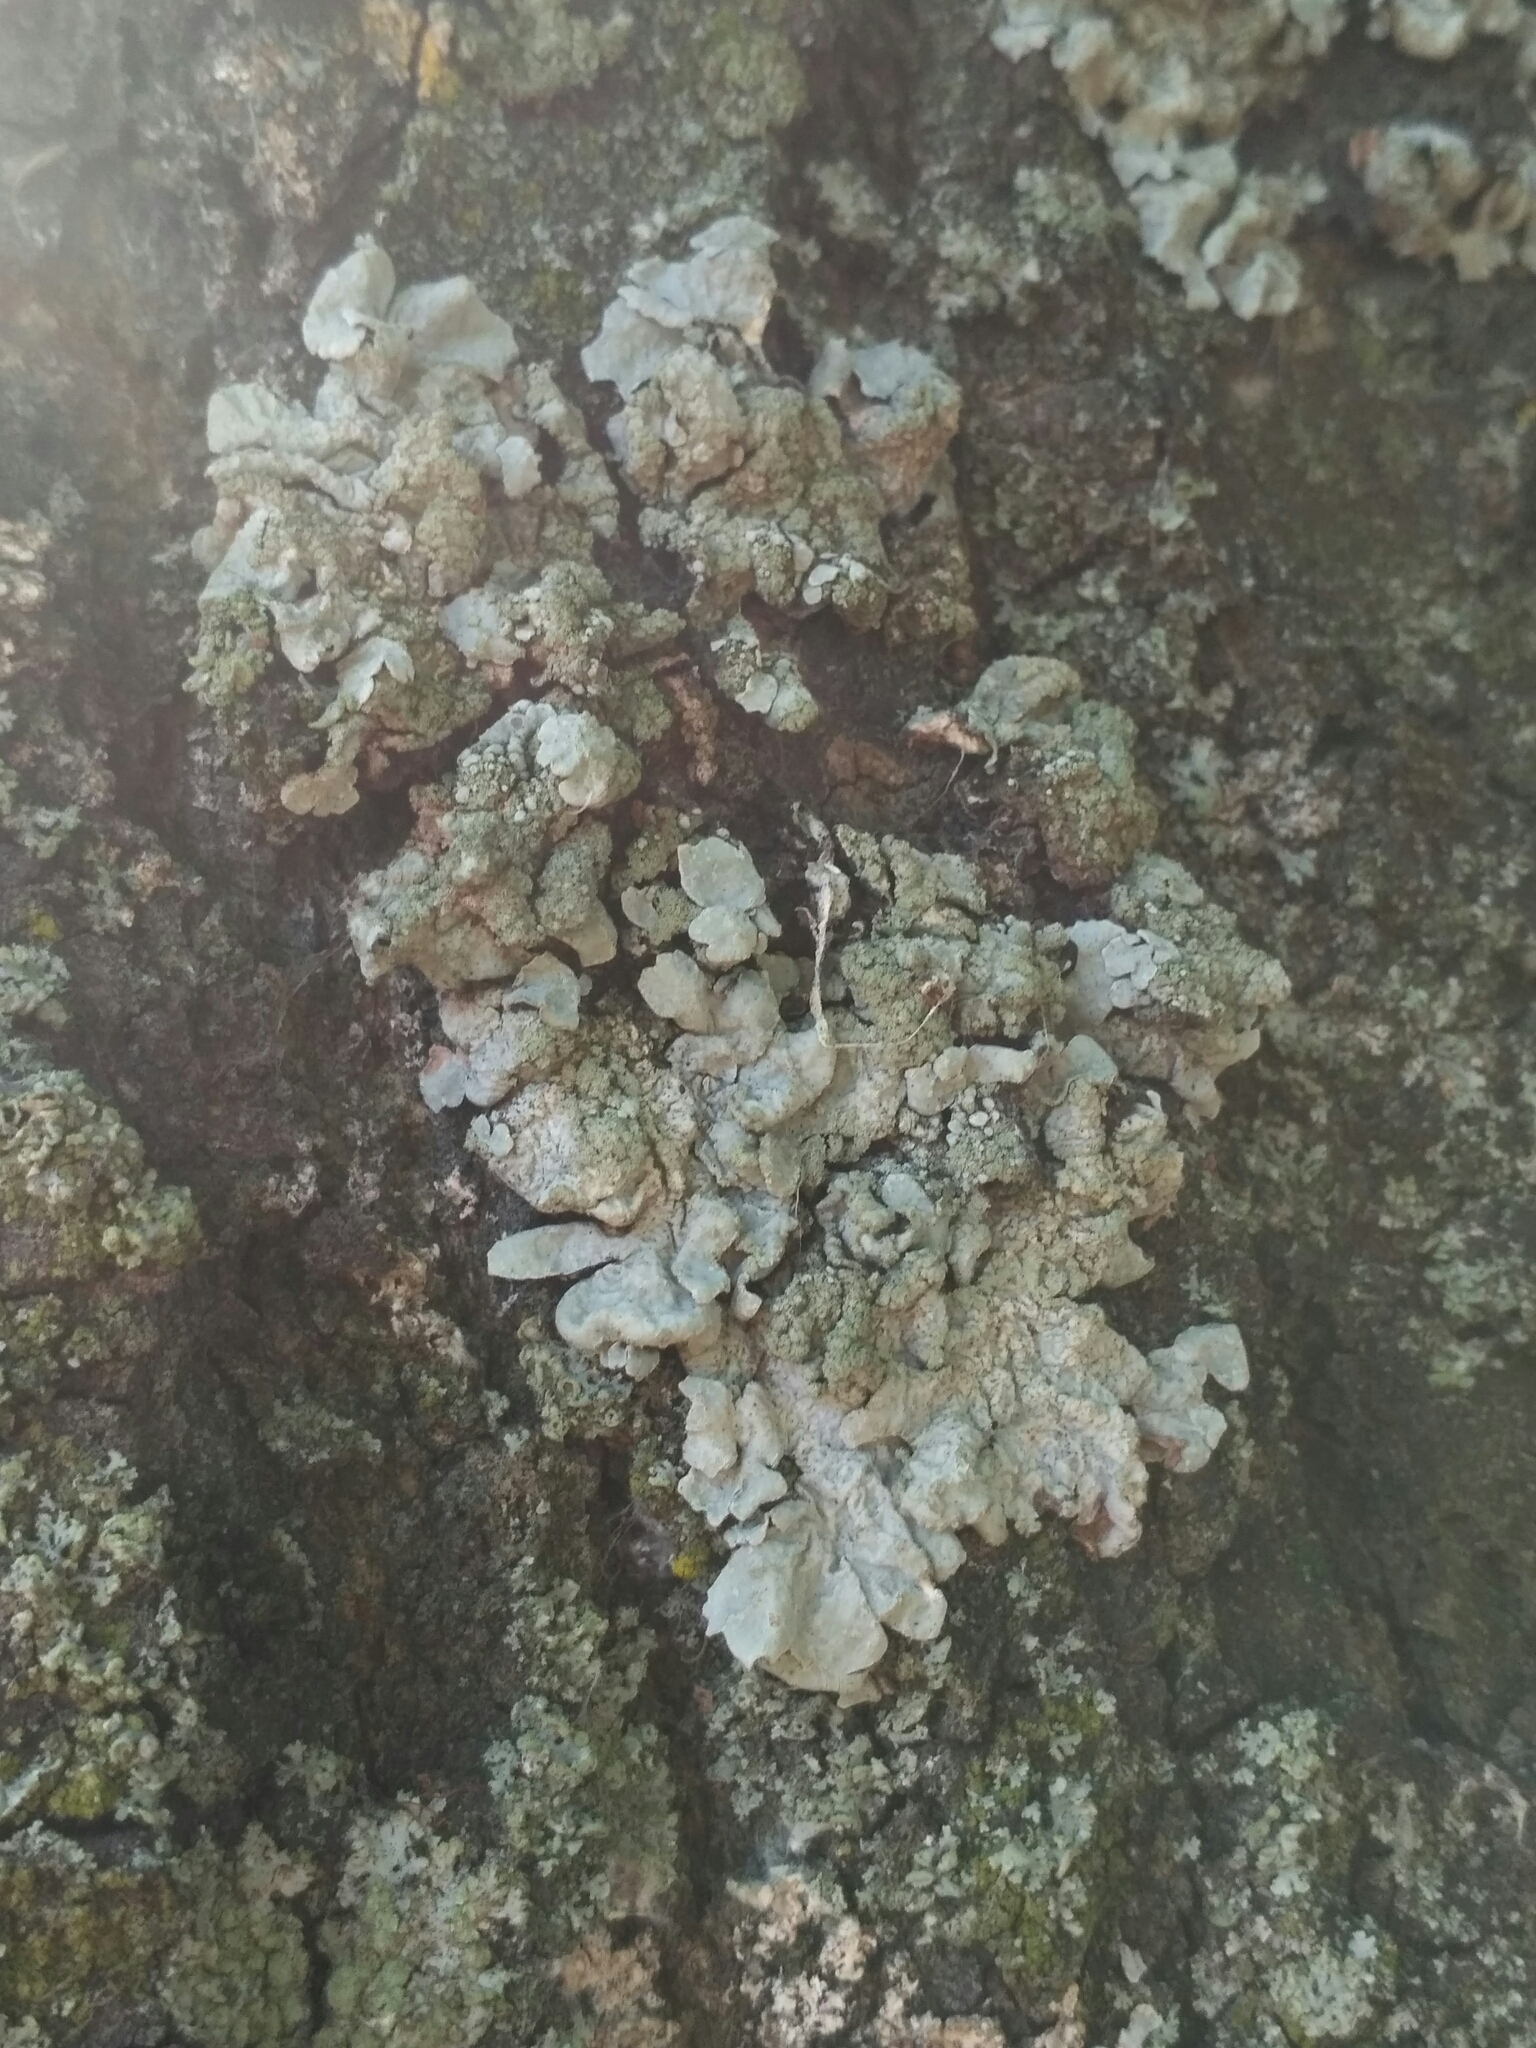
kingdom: Fungi
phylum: Ascomycota
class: Lecanoromycetes
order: Lecanorales
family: Parmeliaceae
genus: Parmelia
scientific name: Parmelia sulcata
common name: Netted shield lichen
